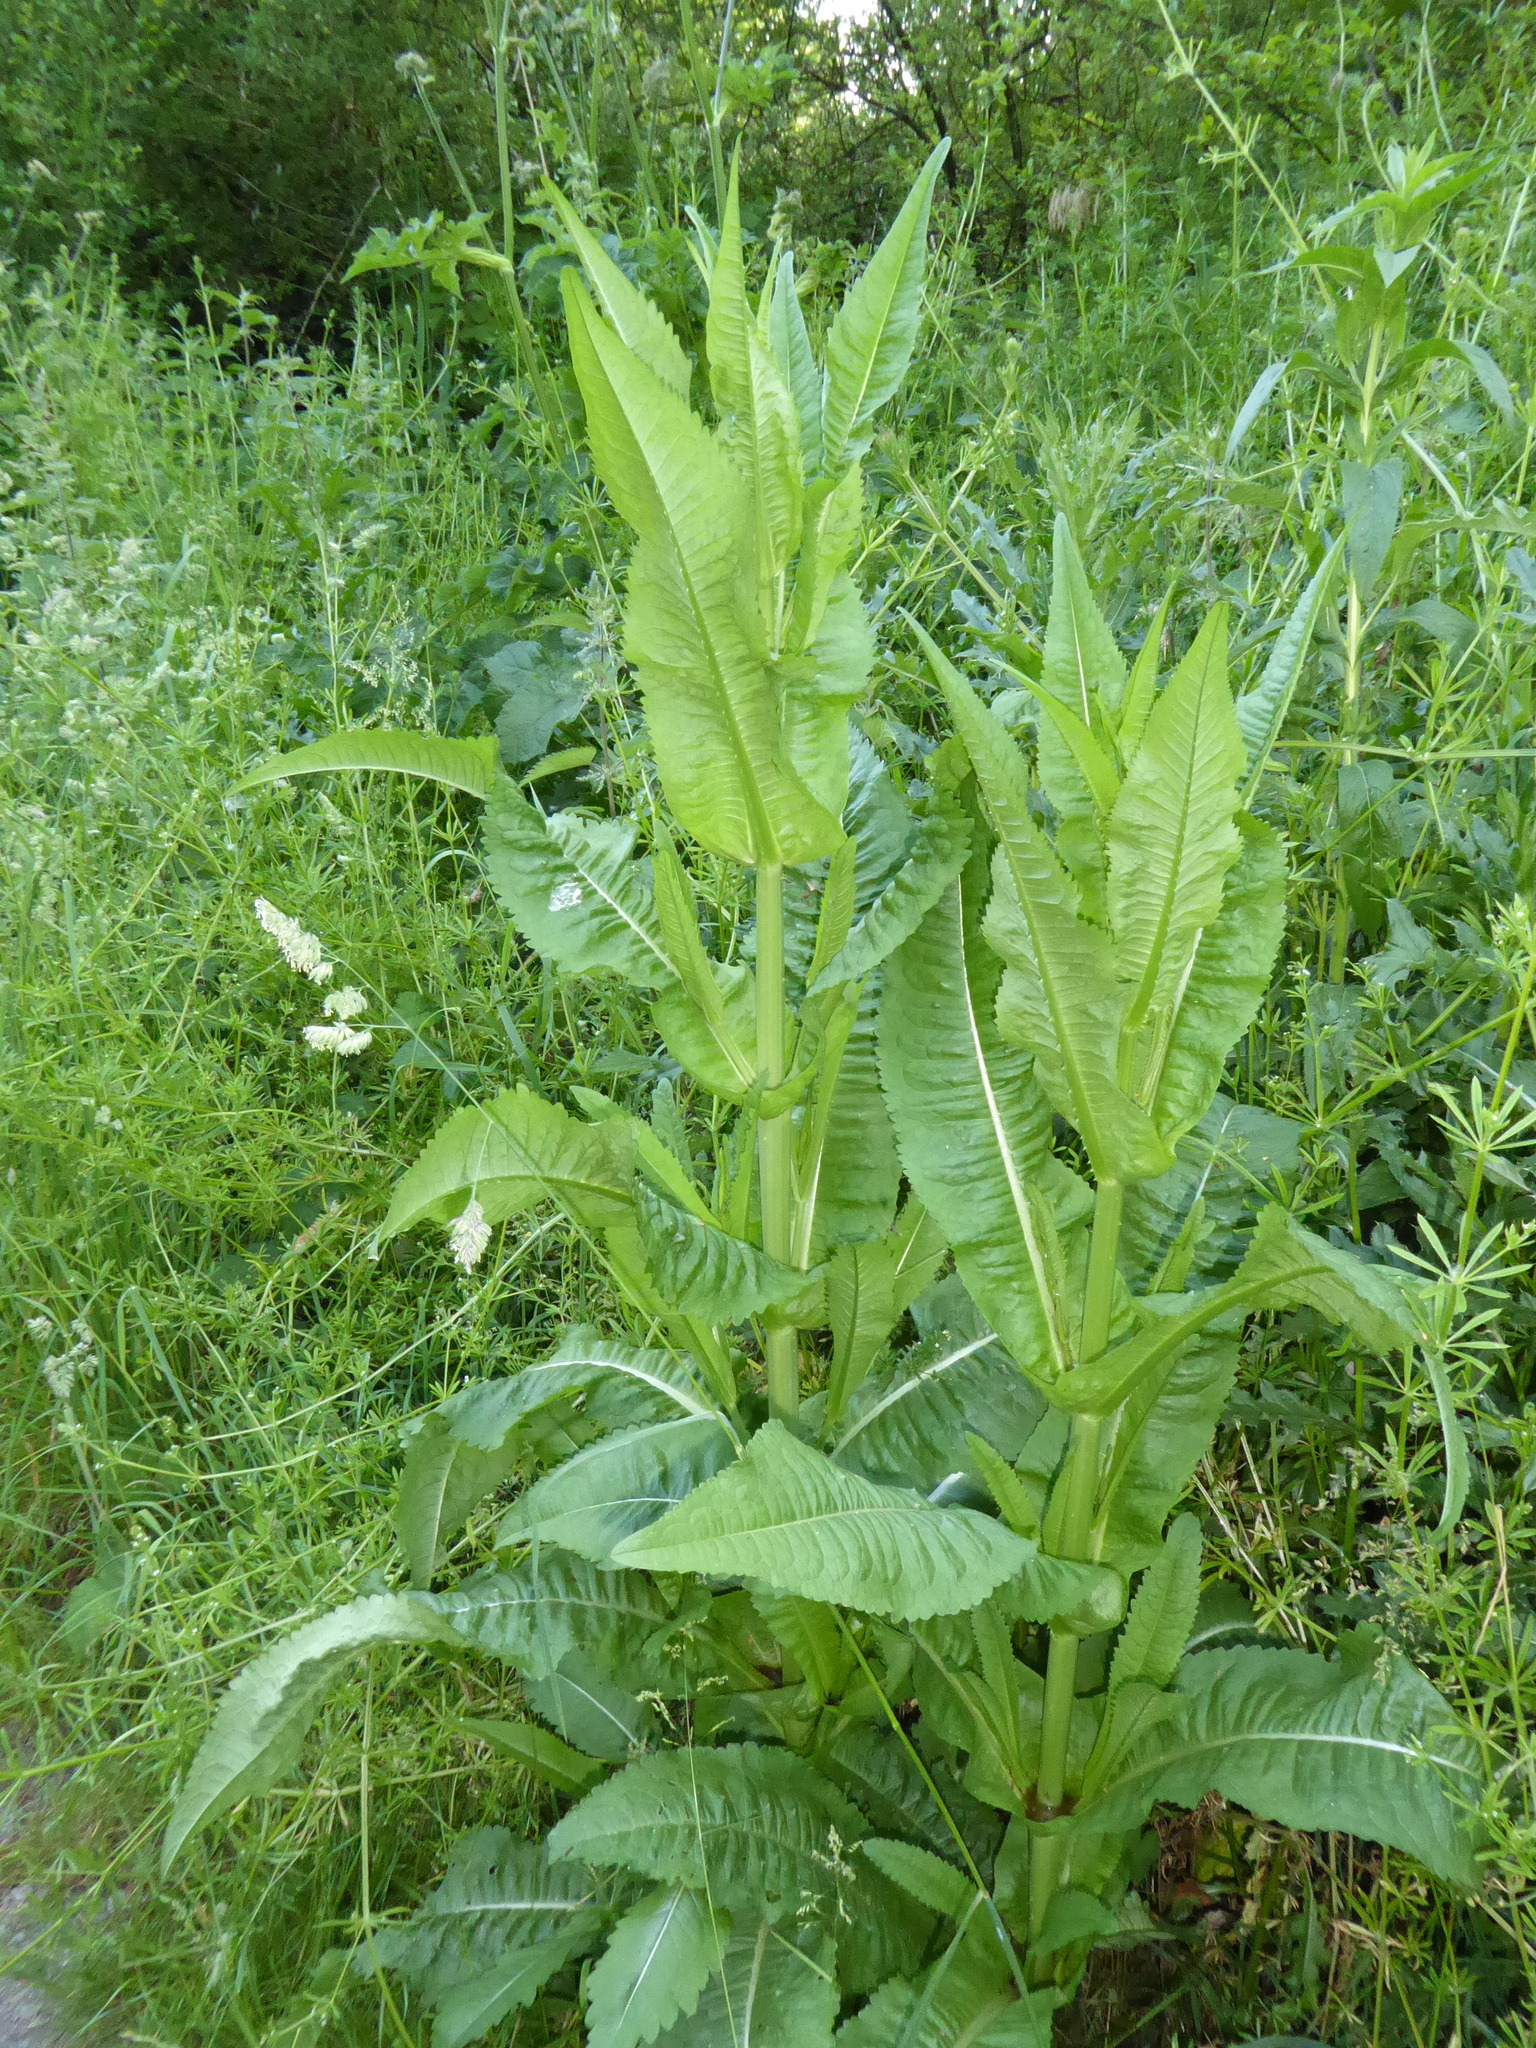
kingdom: Plantae
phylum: Tracheophyta
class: Magnoliopsida
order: Dipsacales
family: Caprifoliaceae
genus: Dipsacus
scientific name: Dipsacus fullonum
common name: Teasel
